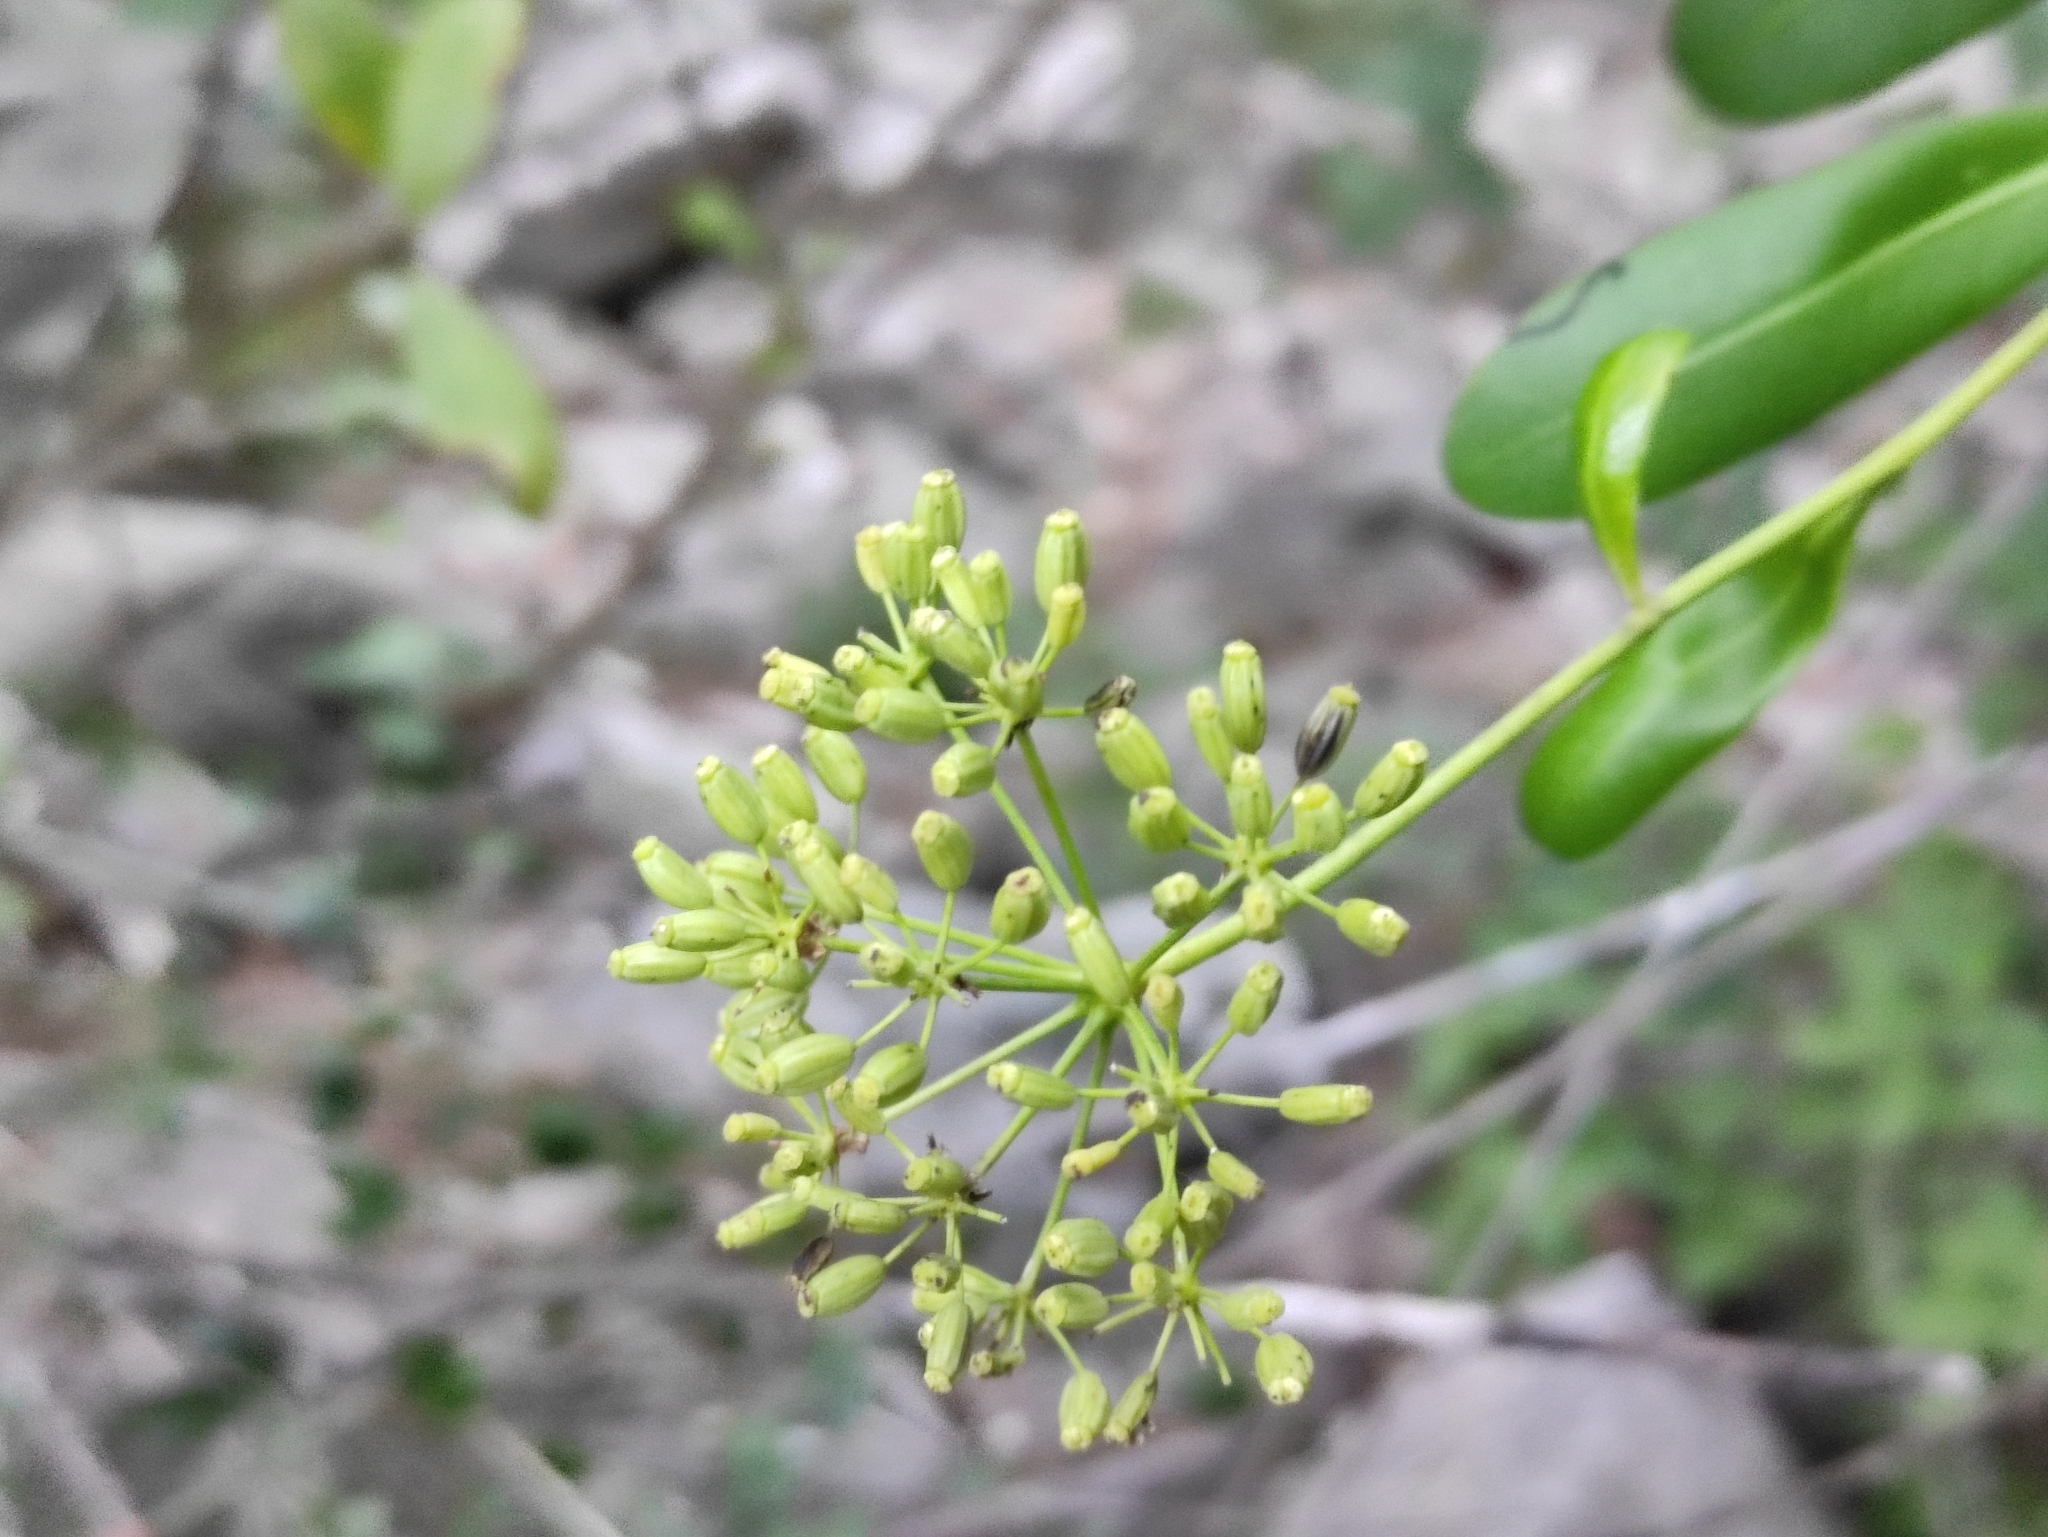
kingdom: Plantae
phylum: Tracheophyta
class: Magnoliopsida
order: Apiales
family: Apiaceae
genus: Bupleurum
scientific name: Bupleurum fruticosum
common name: Shrubby hare's-ear
